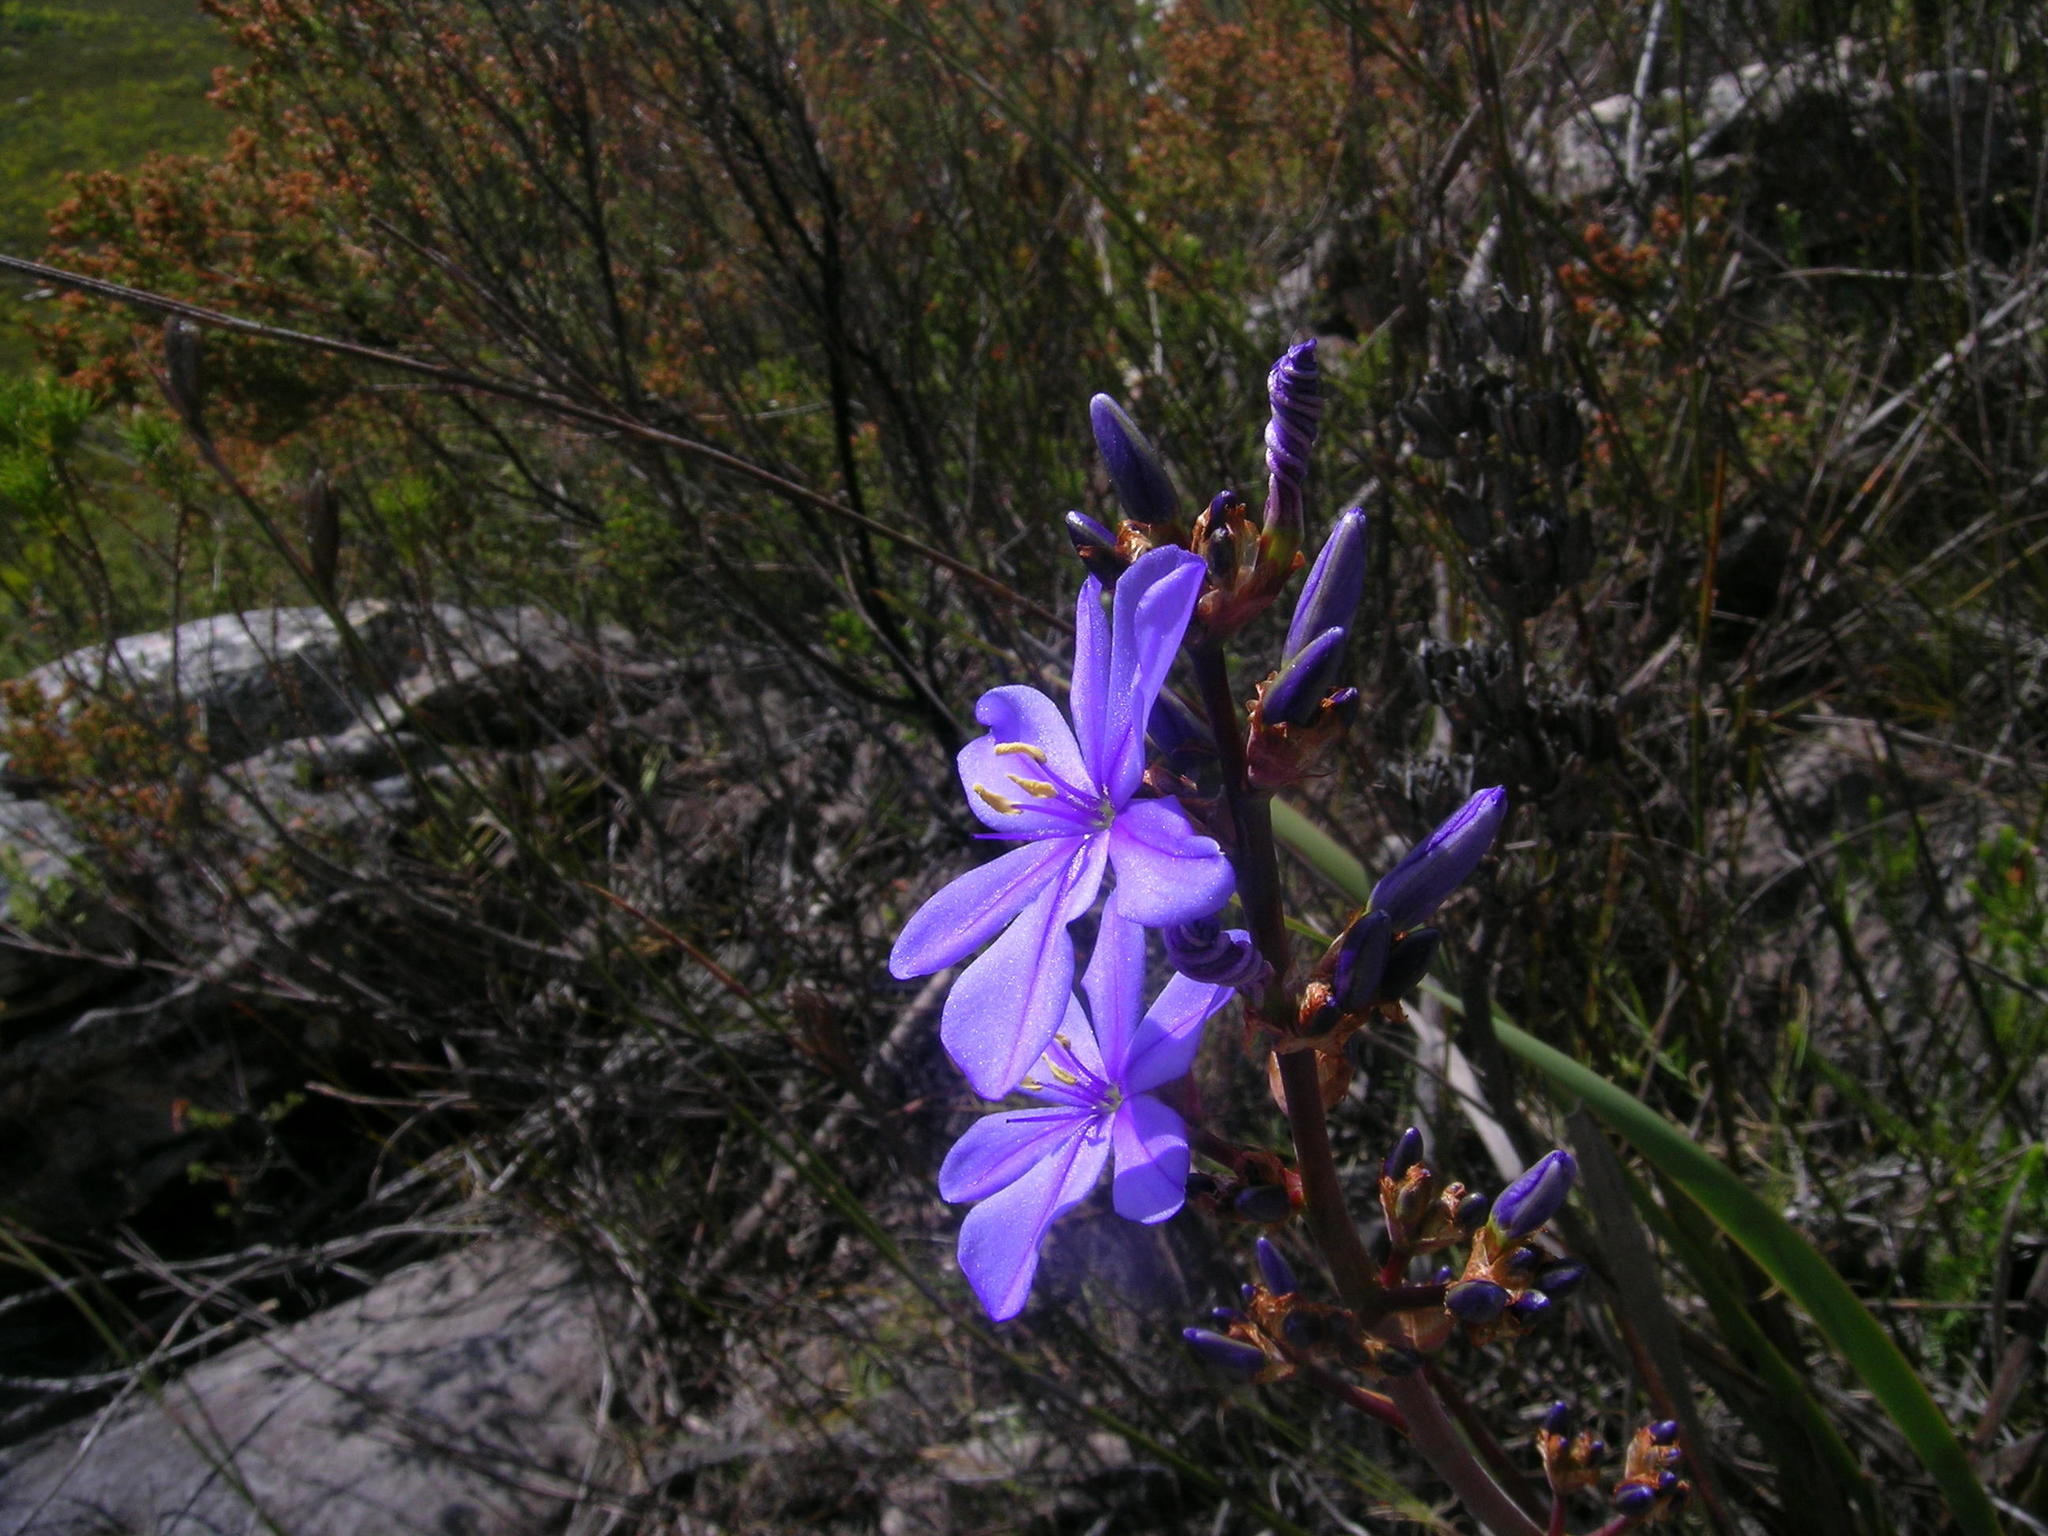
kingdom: Plantae
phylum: Tracheophyta
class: Liliopsida
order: Asparagales
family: Iridaceae
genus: Aristea
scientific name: Aristea bakeri
